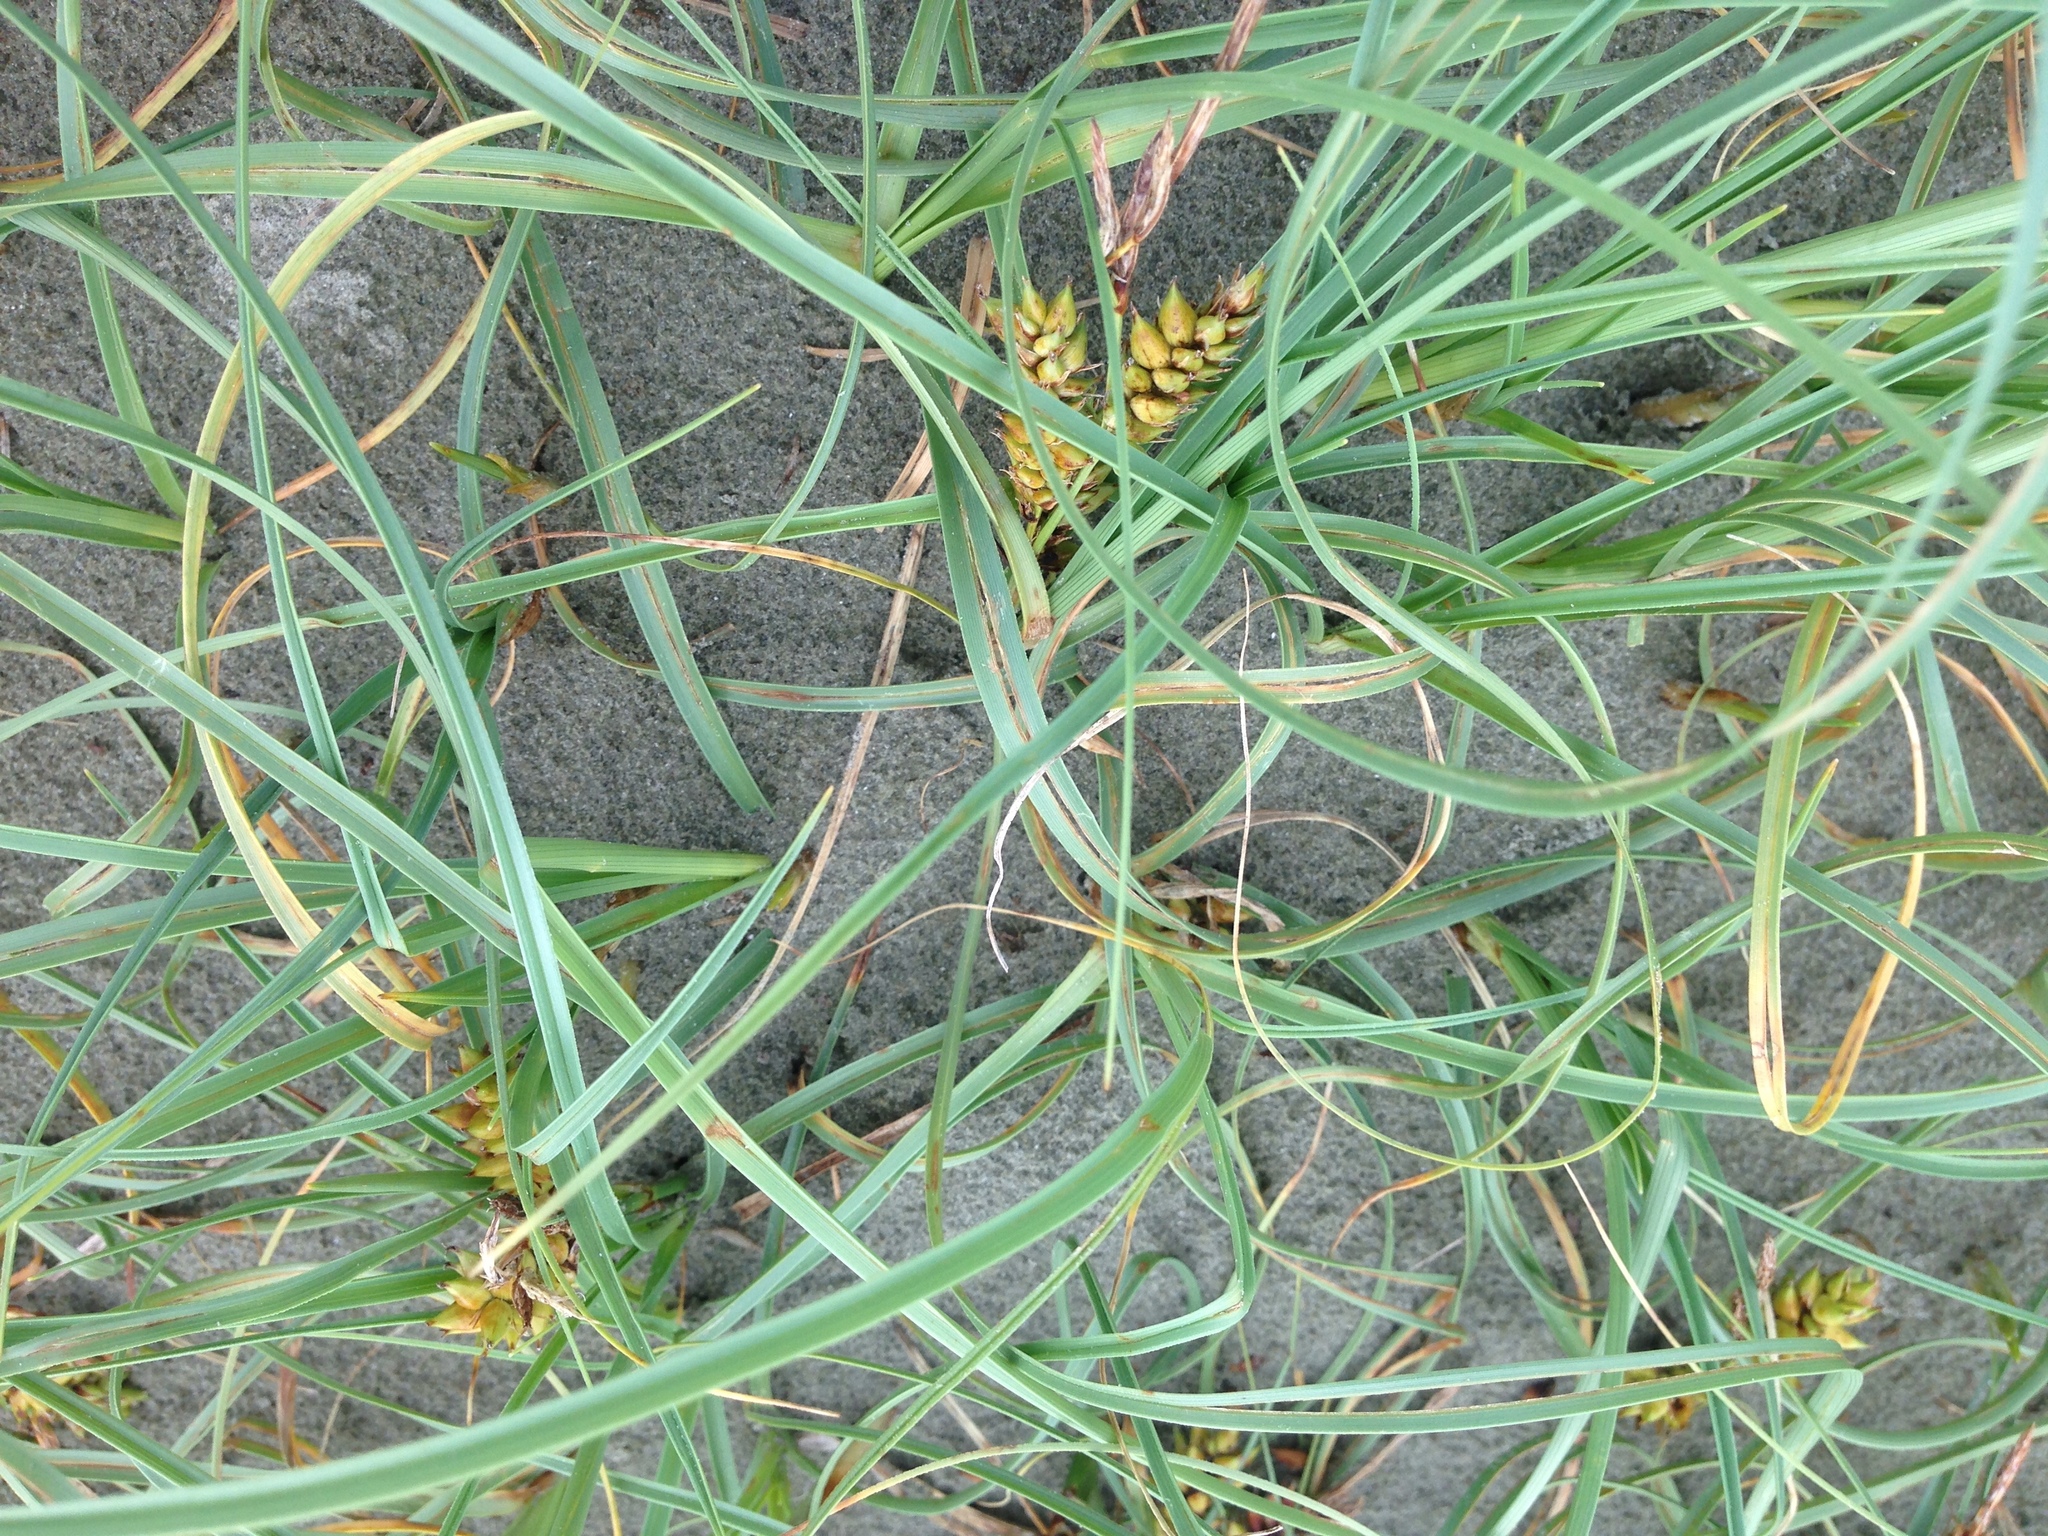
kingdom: Plantae
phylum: Tracheophyta
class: Liliopsida
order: Poales
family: Cyperaceae
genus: Carex
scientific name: Carex pumila
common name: Dwarf sedge
